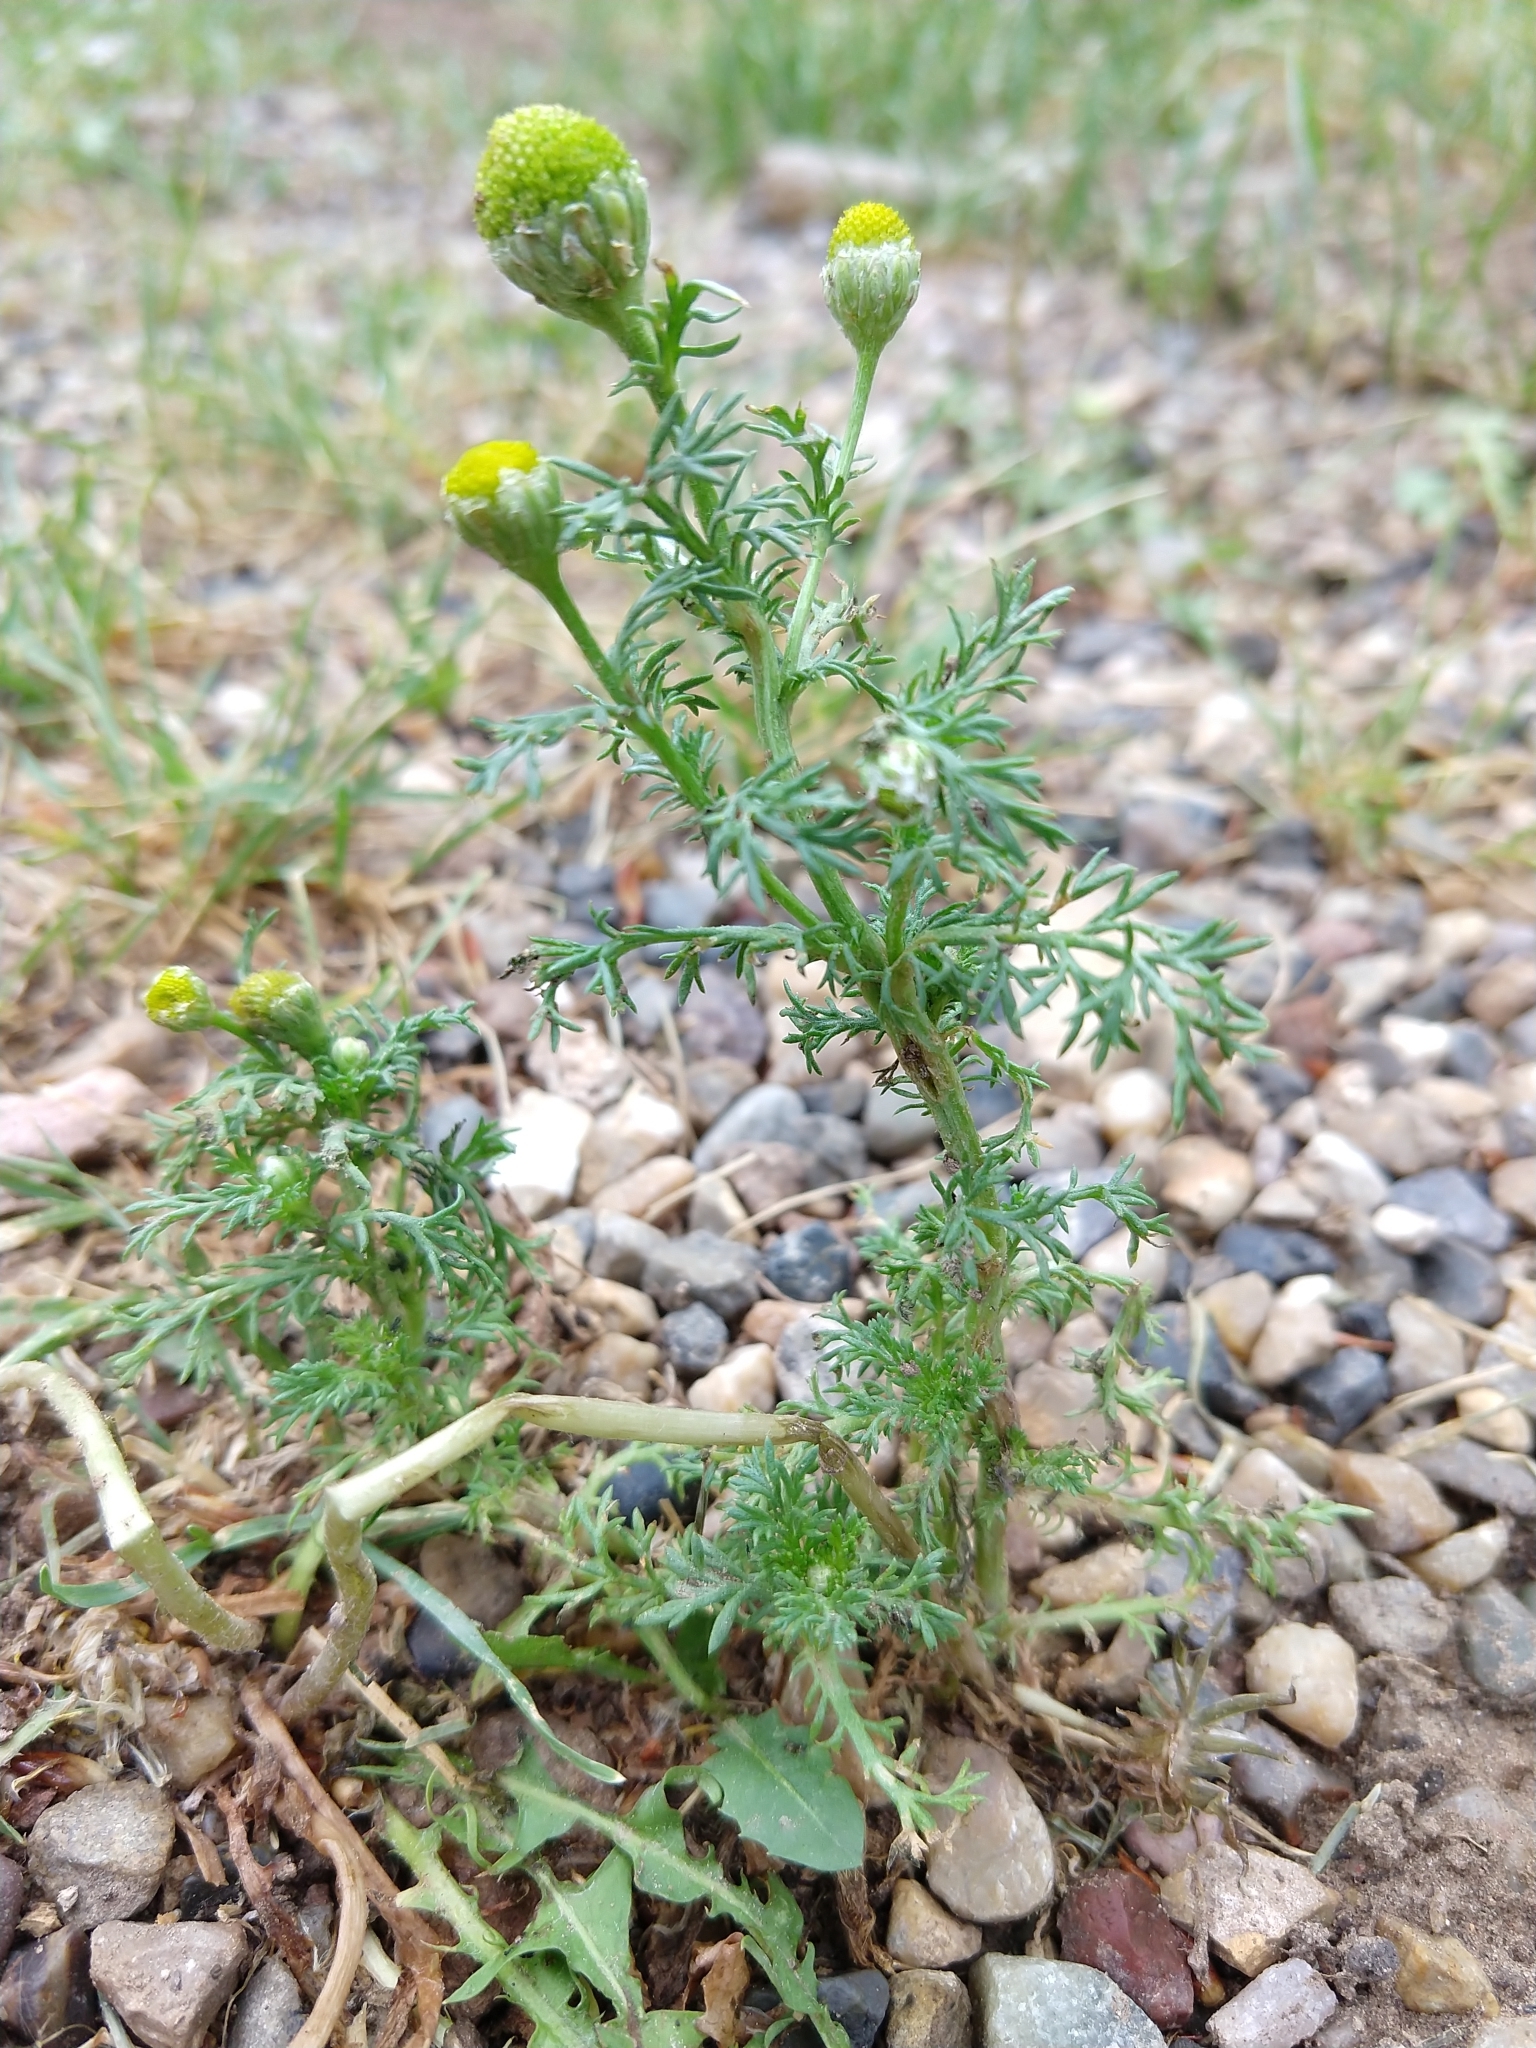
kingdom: Plantae
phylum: Tracheophyta
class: Magnoliopsida
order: Asterales
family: Asteraceae
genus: Matricaria
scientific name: Matricaria discoidea
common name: Disc mayweed
